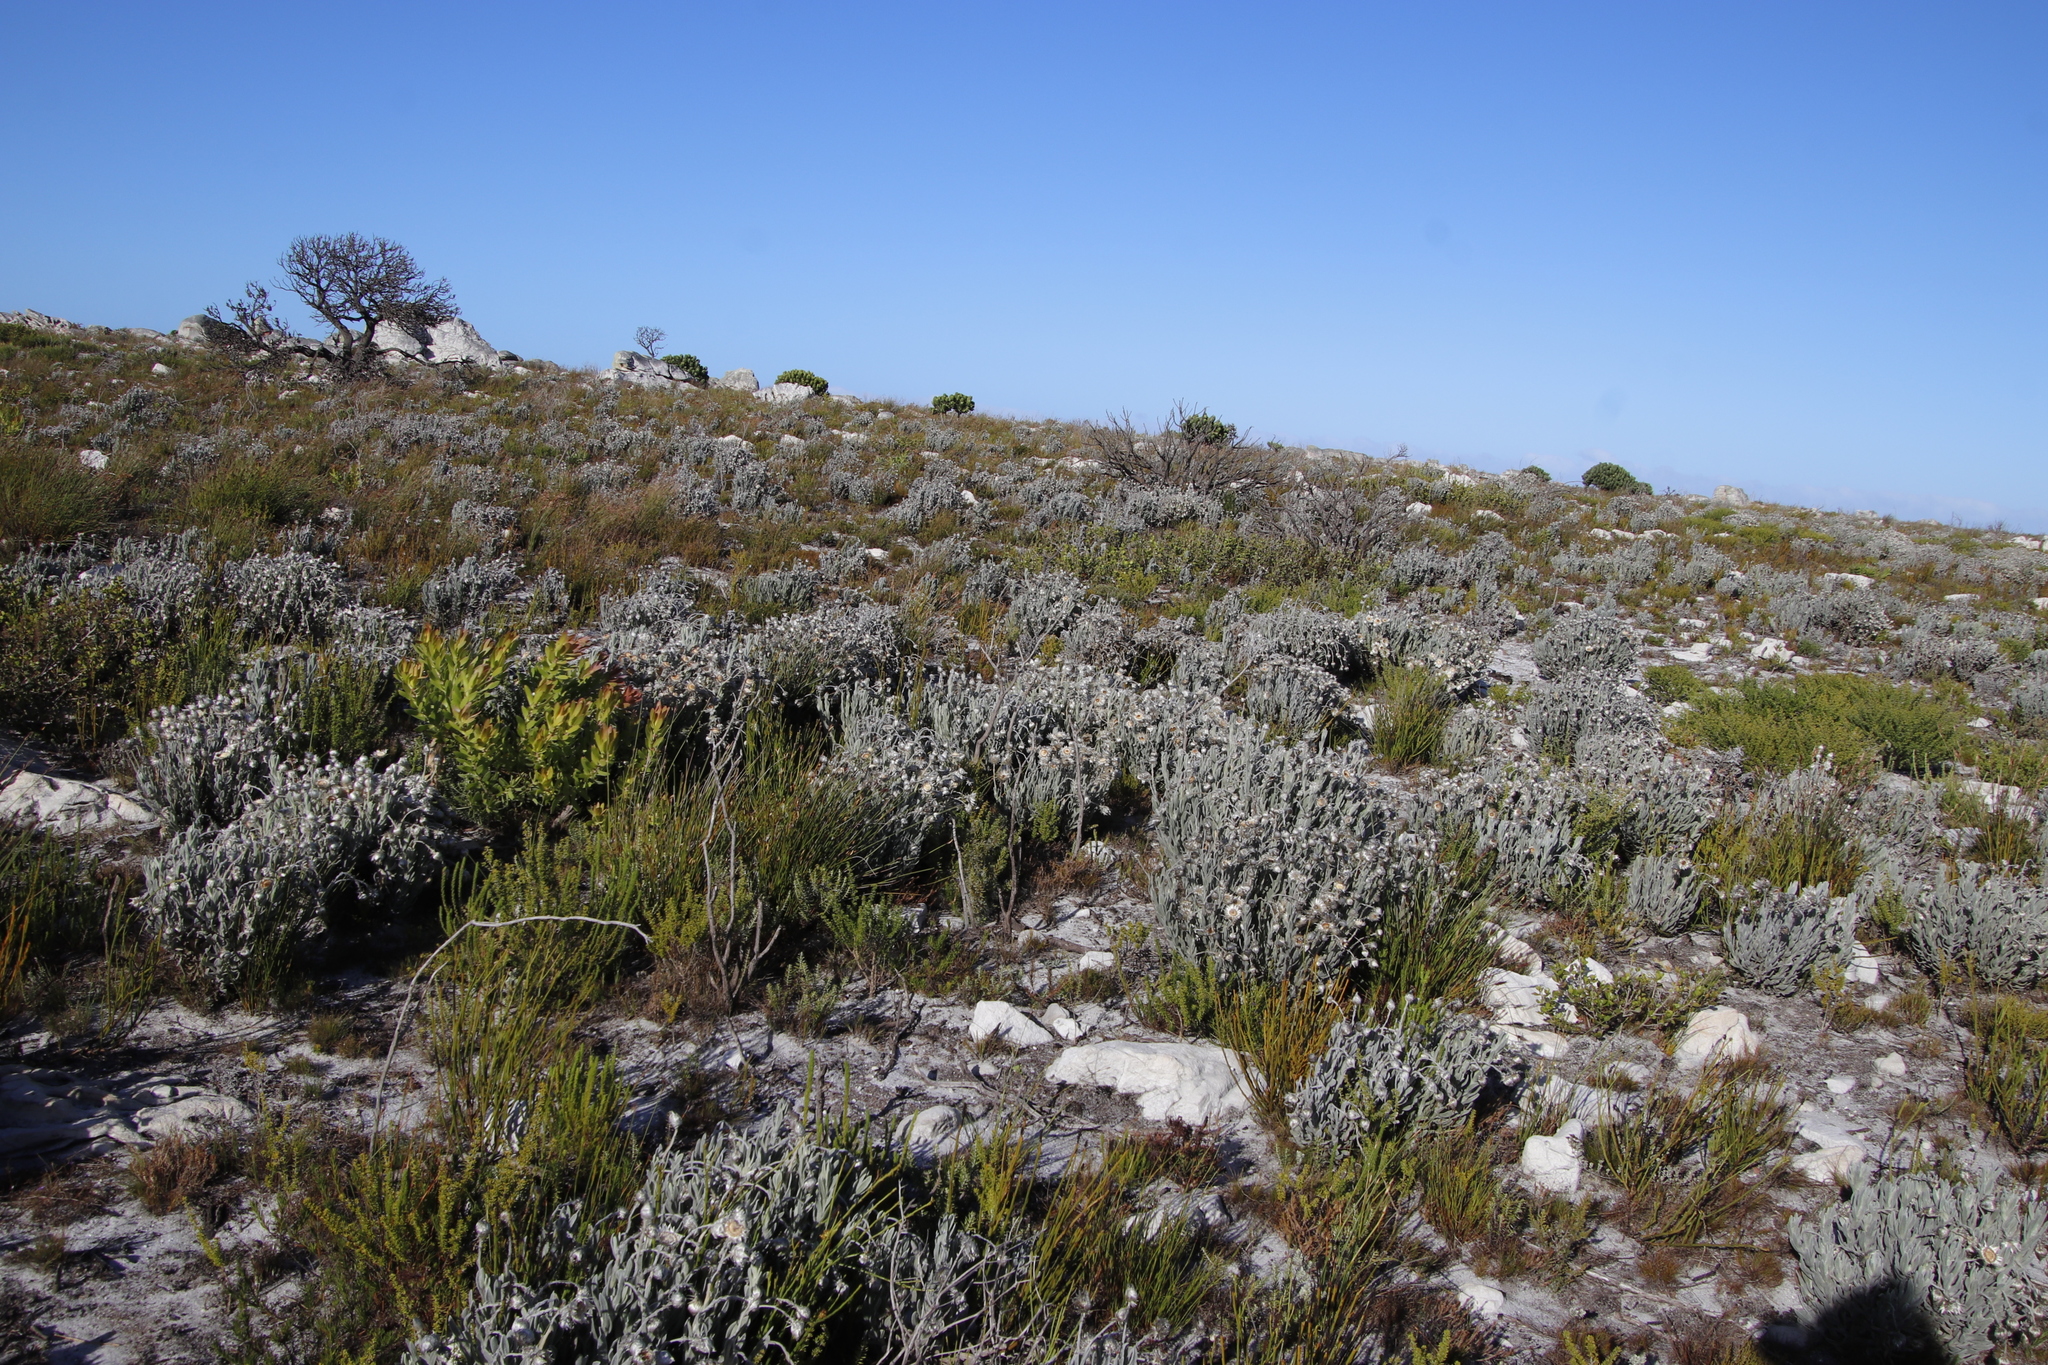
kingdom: Plantae
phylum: Tracheophyta
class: Magnoliopsida
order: Asterales
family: Asteraceae
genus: Syncarpha
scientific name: Syncarpha vestita
